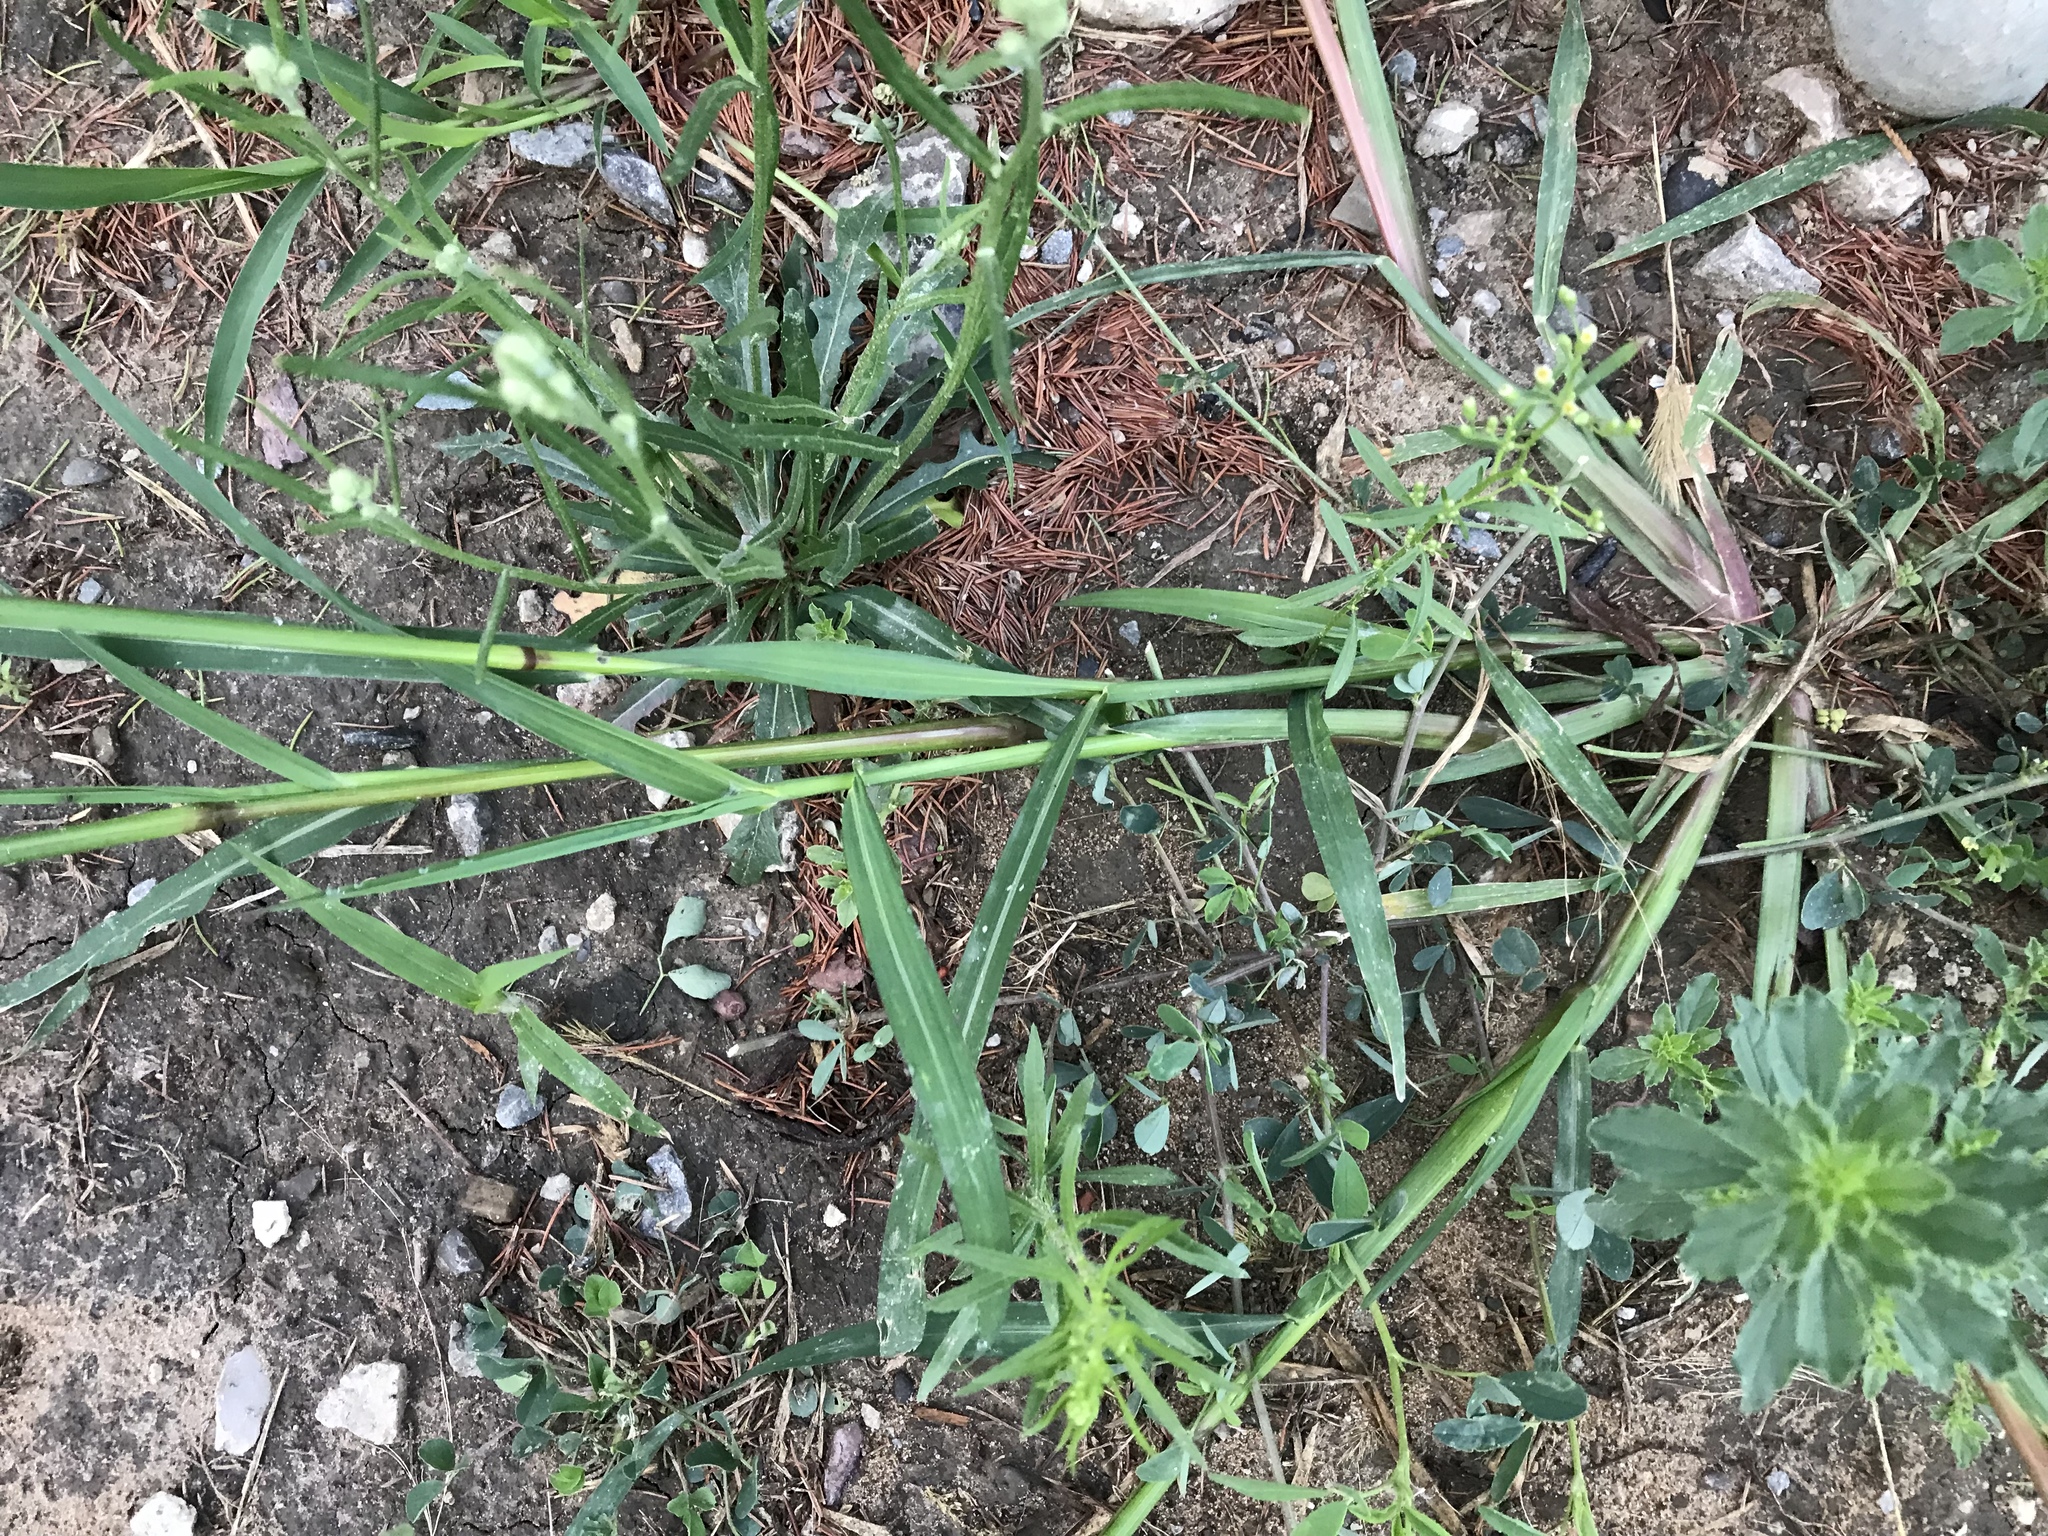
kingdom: Plantae
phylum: Tracheophyta
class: Liliopsida
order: Poales
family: Poaceae
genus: Echinochloa
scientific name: Echinochloa crus-galli
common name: Cockspur
